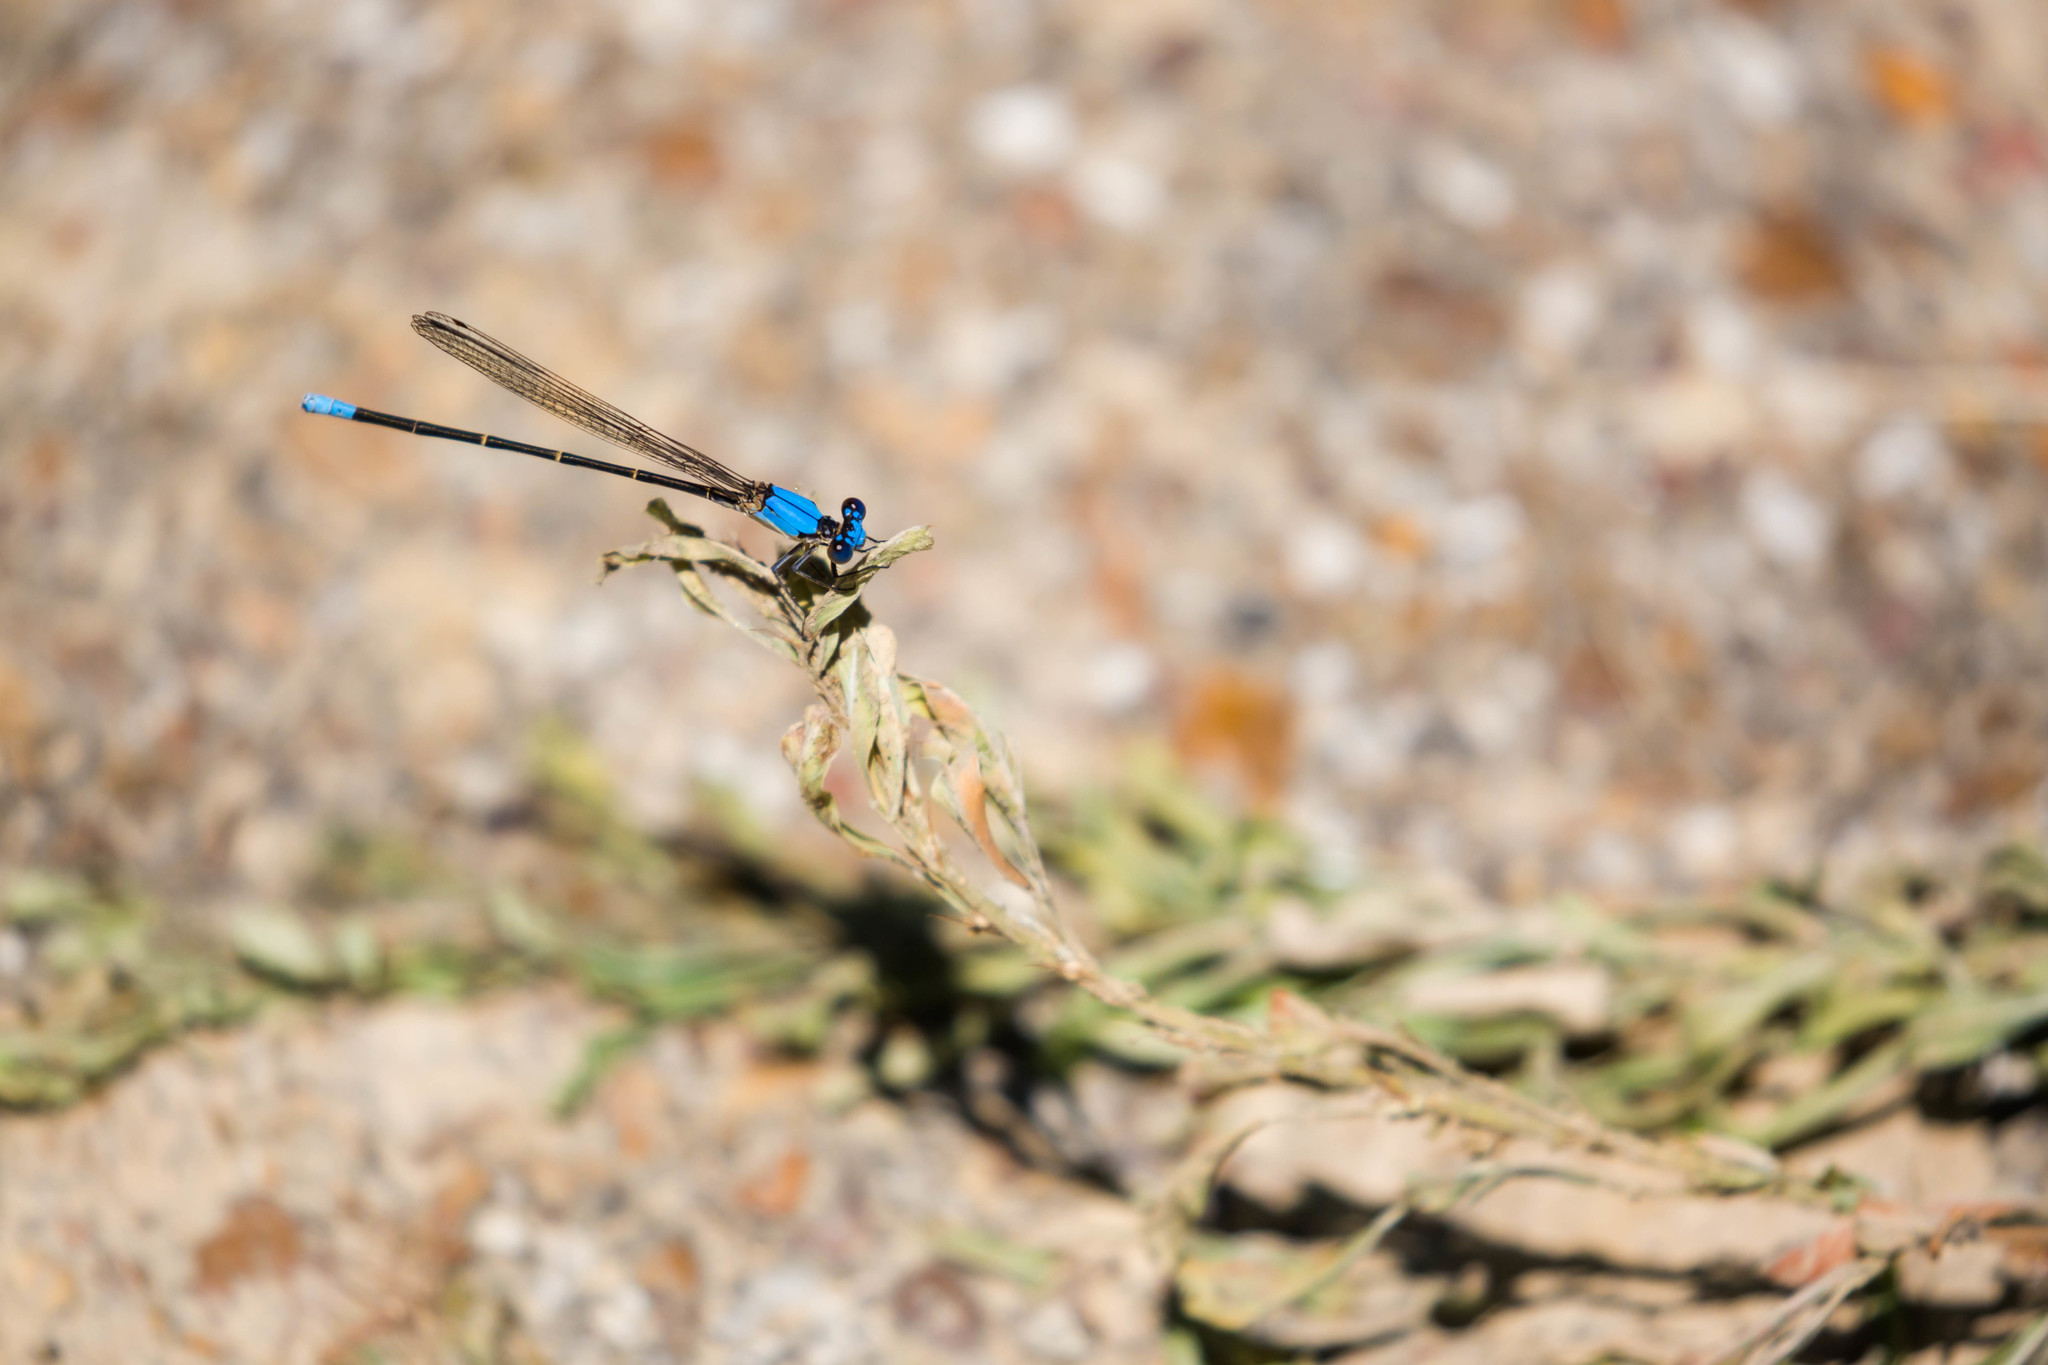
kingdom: Animalia
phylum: Arthropoda
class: Insecta
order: Odonata
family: Coenagrionidae
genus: Argia
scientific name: Argia apicalis
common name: Blue-fronted dancer
